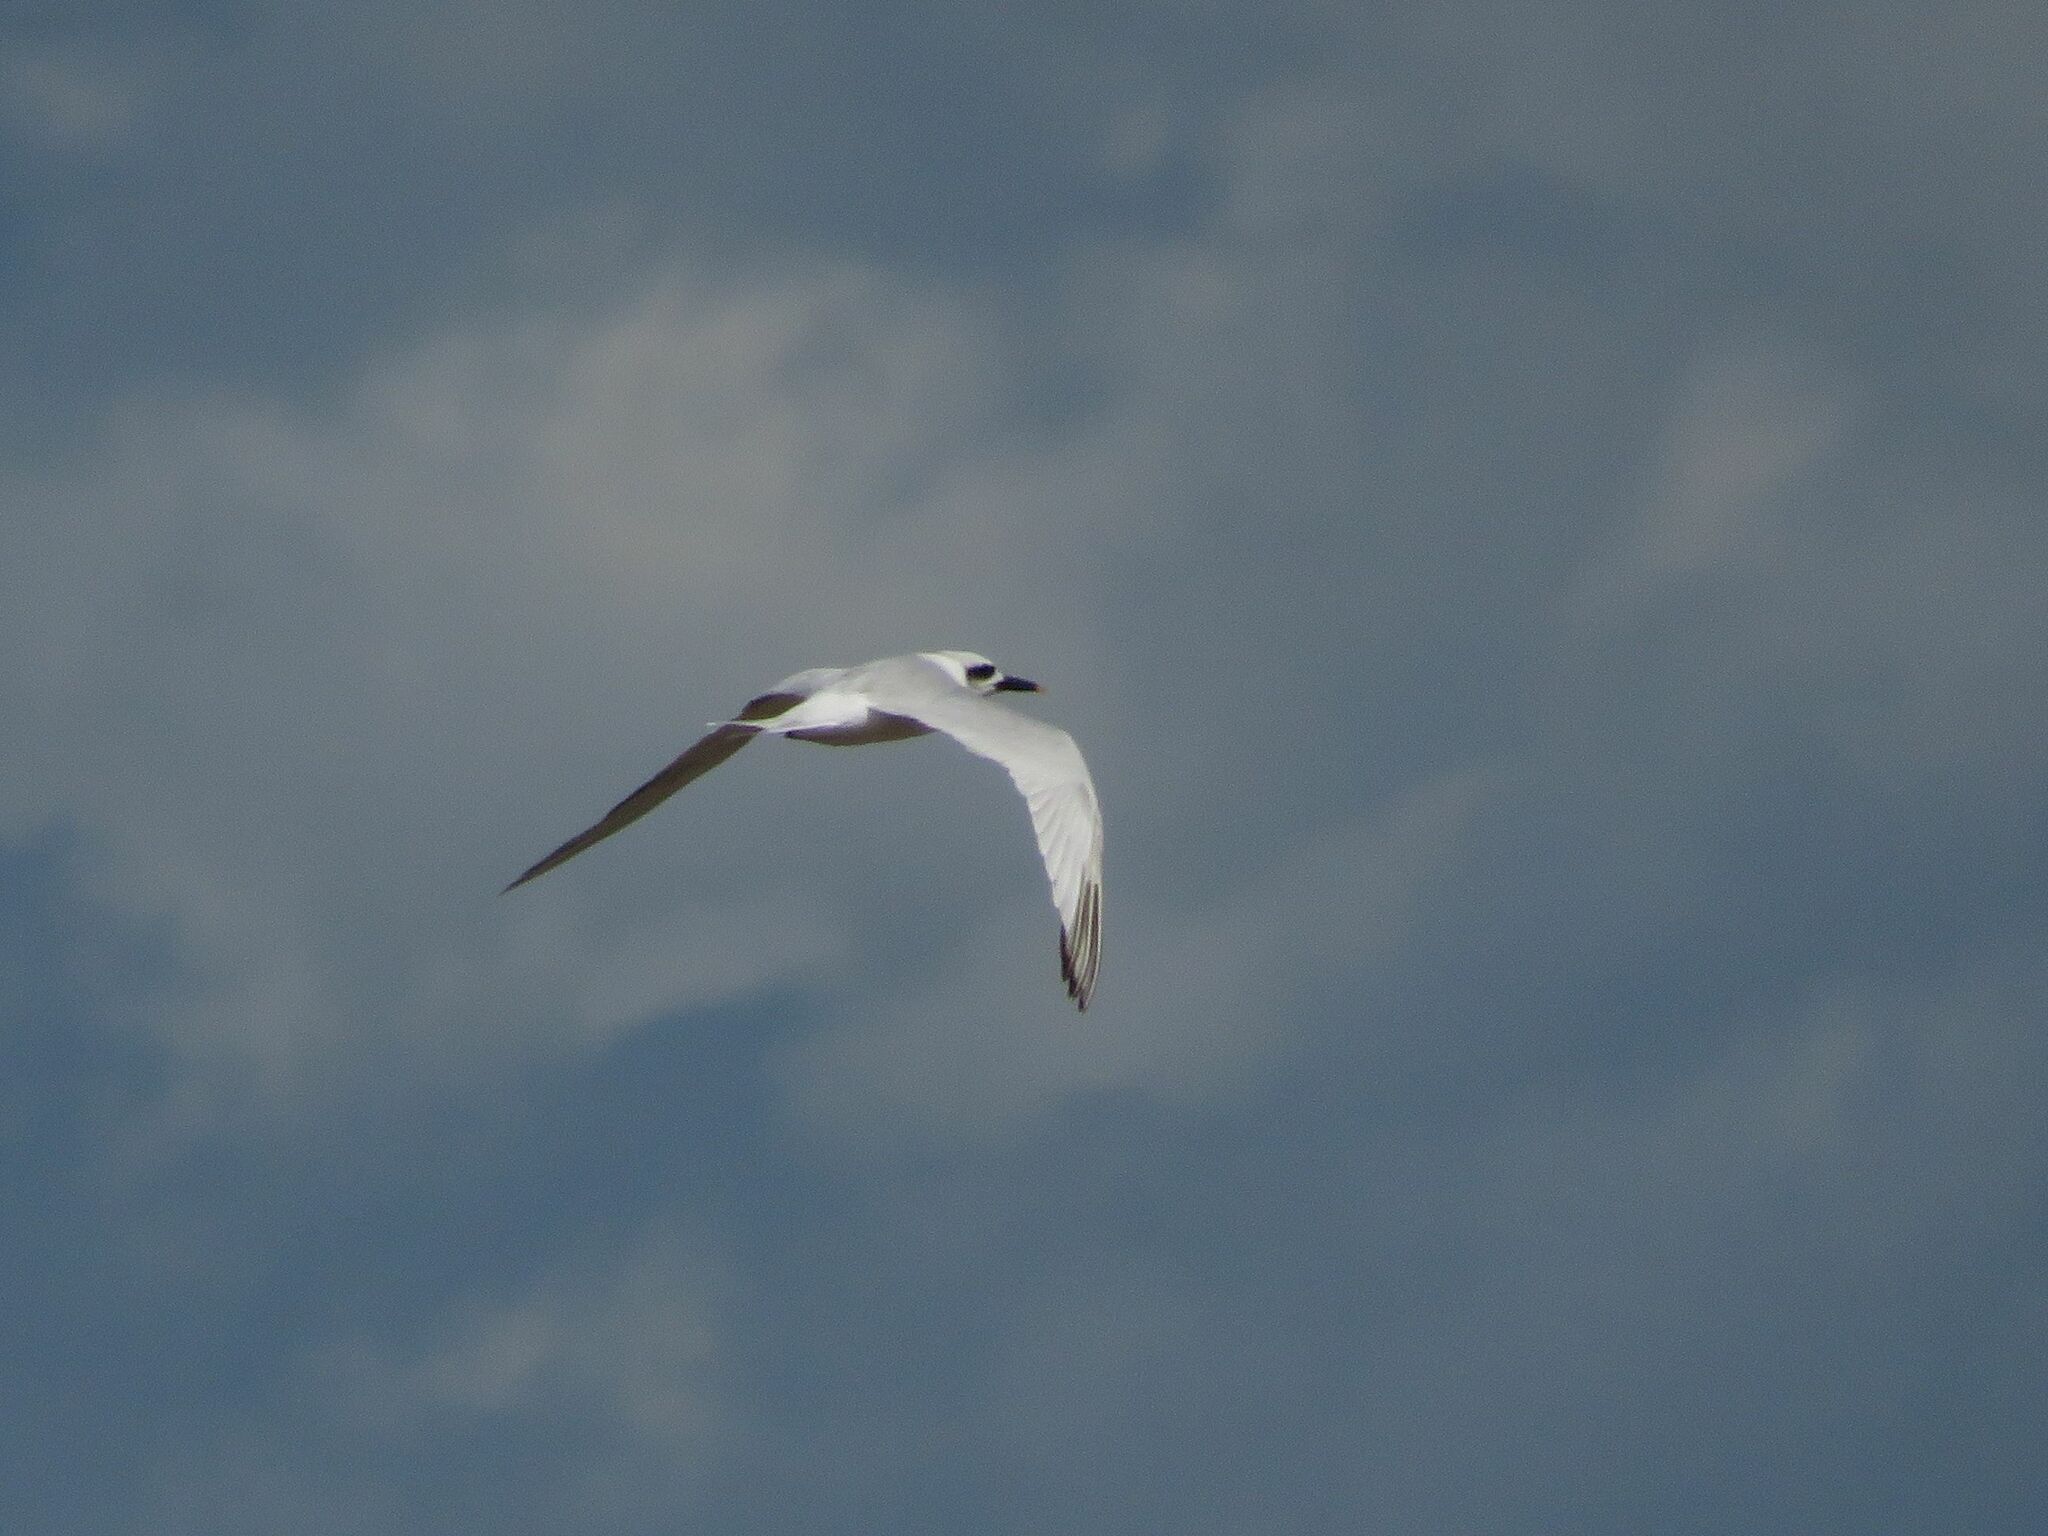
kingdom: Animalia
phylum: Chordata
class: Aves
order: Charadriiformes
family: Laridae
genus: Sterna
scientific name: Sterna trudeaui
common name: Snowy-crowned tern
